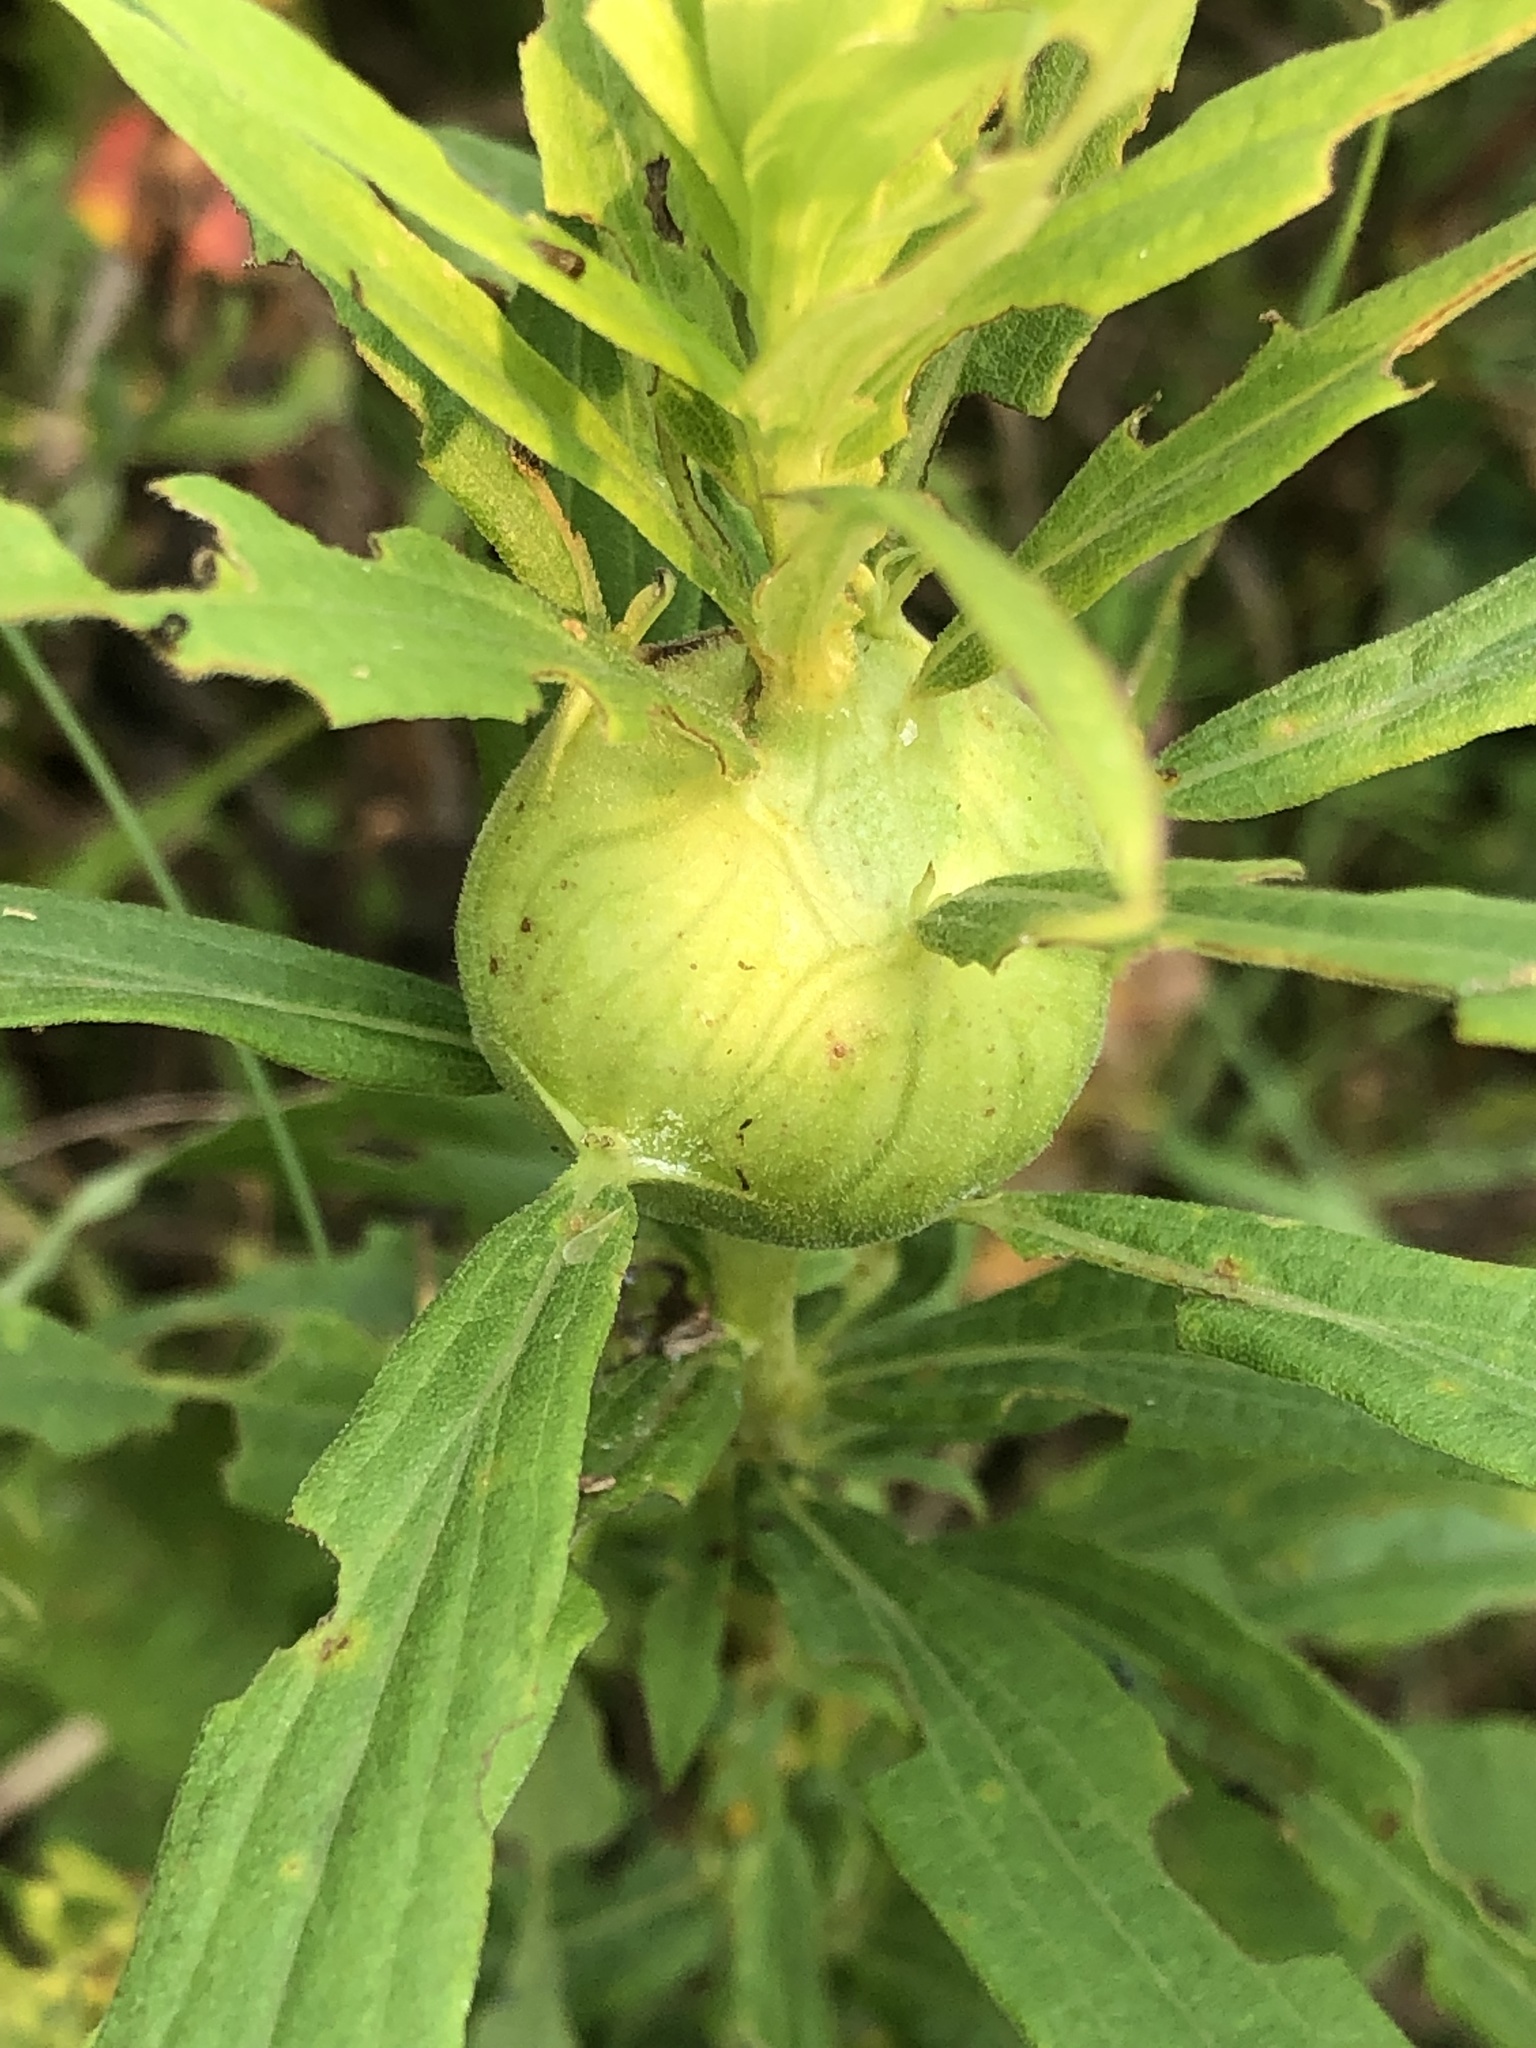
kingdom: Animalia
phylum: Arthropoda
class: Insecta
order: Diptera
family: Tephritidae
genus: Eurosta
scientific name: Eurosta solidaginis
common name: Goldenrod gall fly
